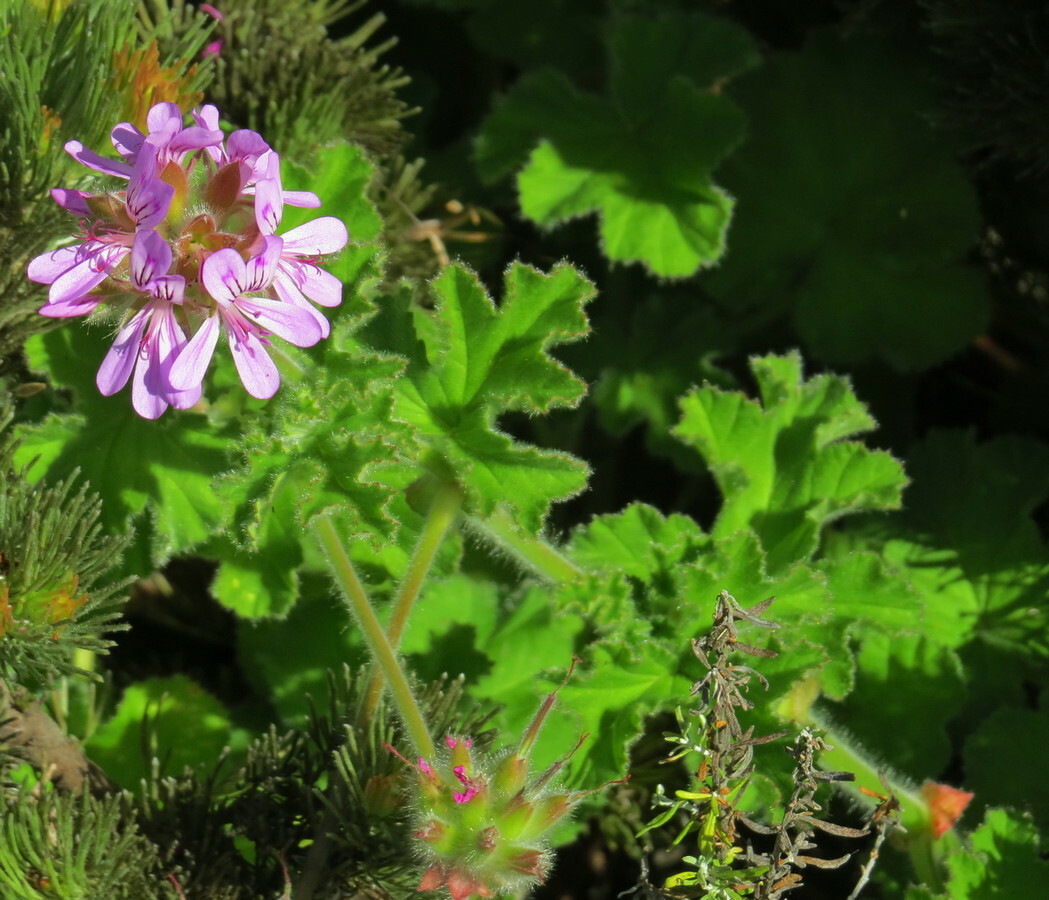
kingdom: Plantae
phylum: Tracheophyta
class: Magnoliopsida
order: Geraniales
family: Geraniaceae
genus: Pelargonium
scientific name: Pelargonium capitatum
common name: Rose scented geranium
